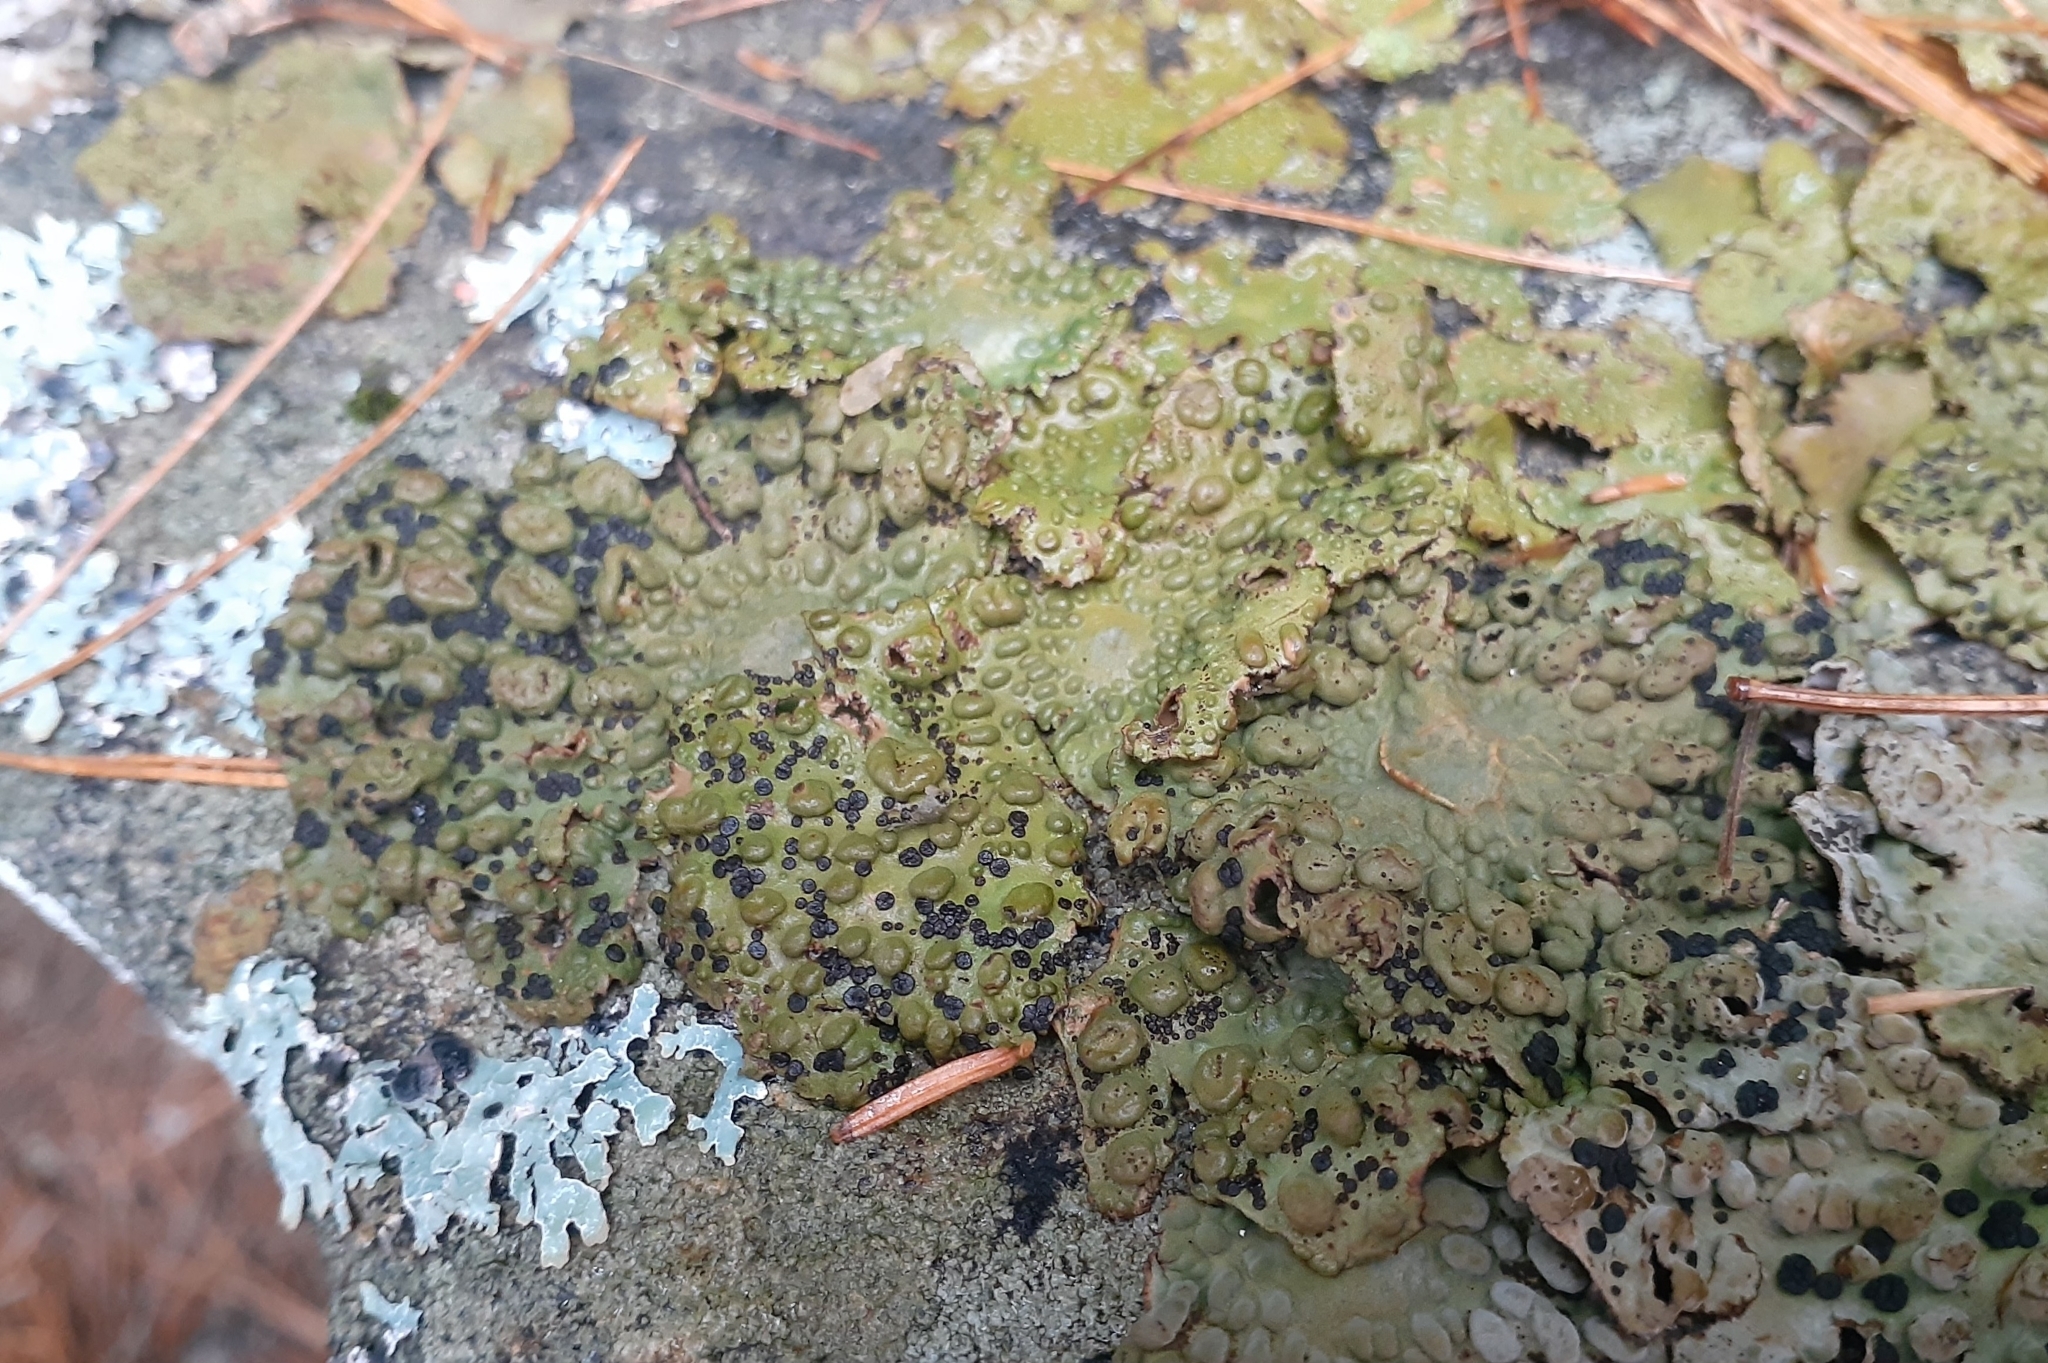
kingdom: Fungi
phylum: Ascomycota
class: Lecanoromycetes
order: Umbilicariales
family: Umbilicariaceae
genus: Lasallia
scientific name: Lasallia papulosa
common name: Common toadskin lichen
